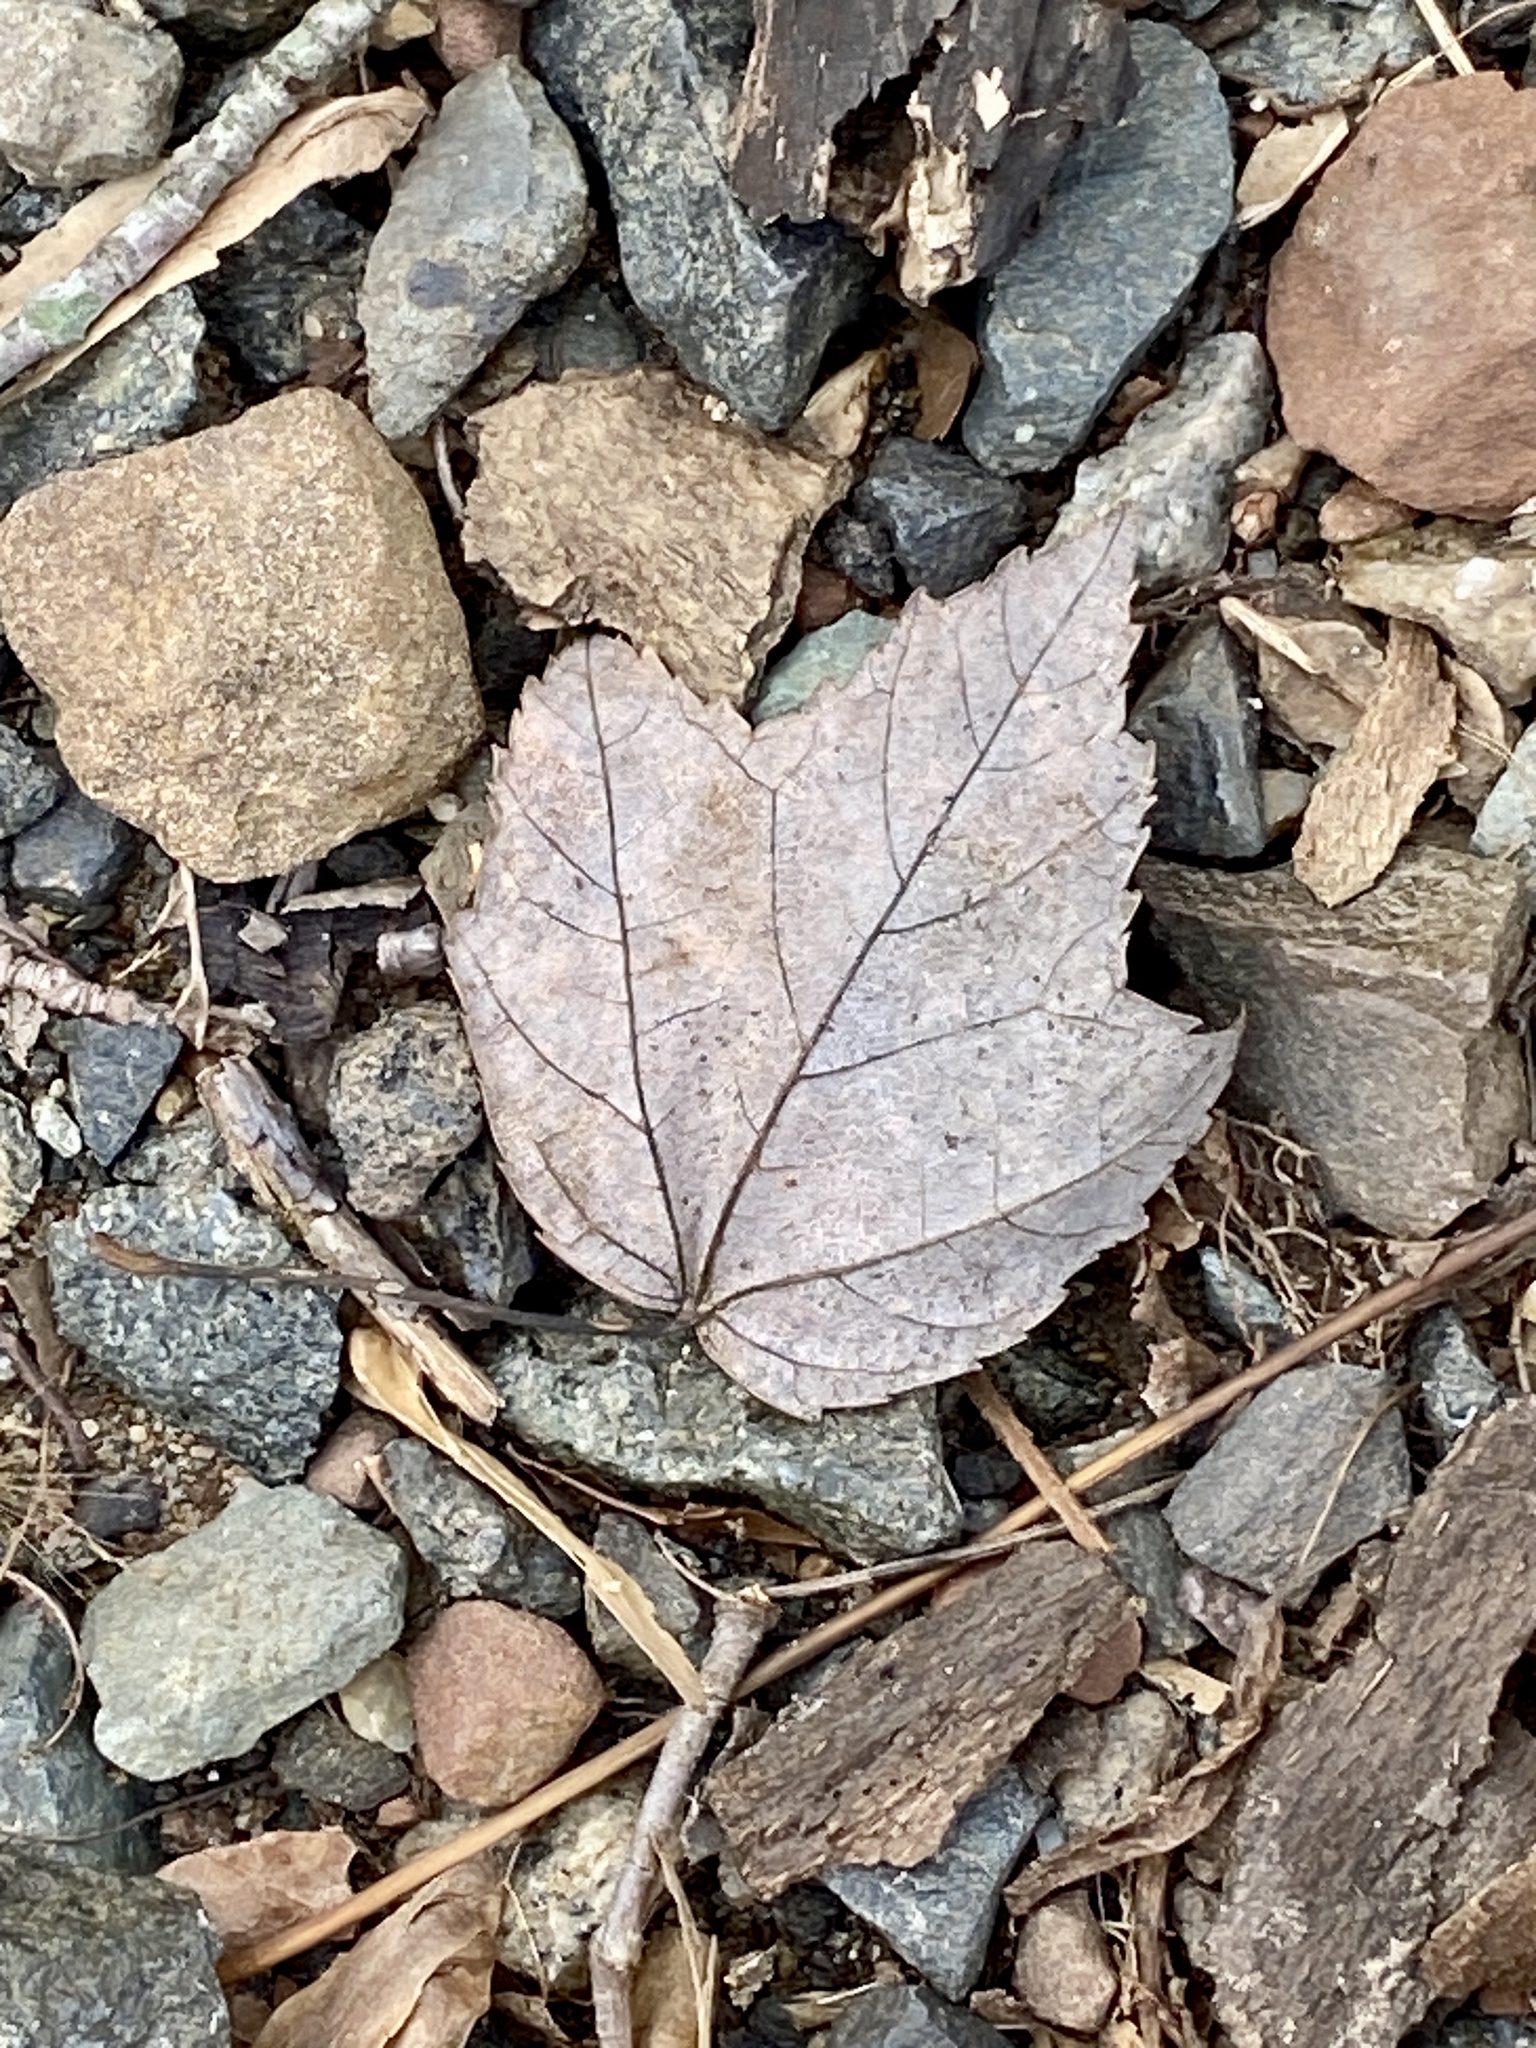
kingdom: Plantae
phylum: Tracheophyta
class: Magnoliopsida
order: Sapindales
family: Sapindaceae
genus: Acer
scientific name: Acer rubrum
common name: Red maple
